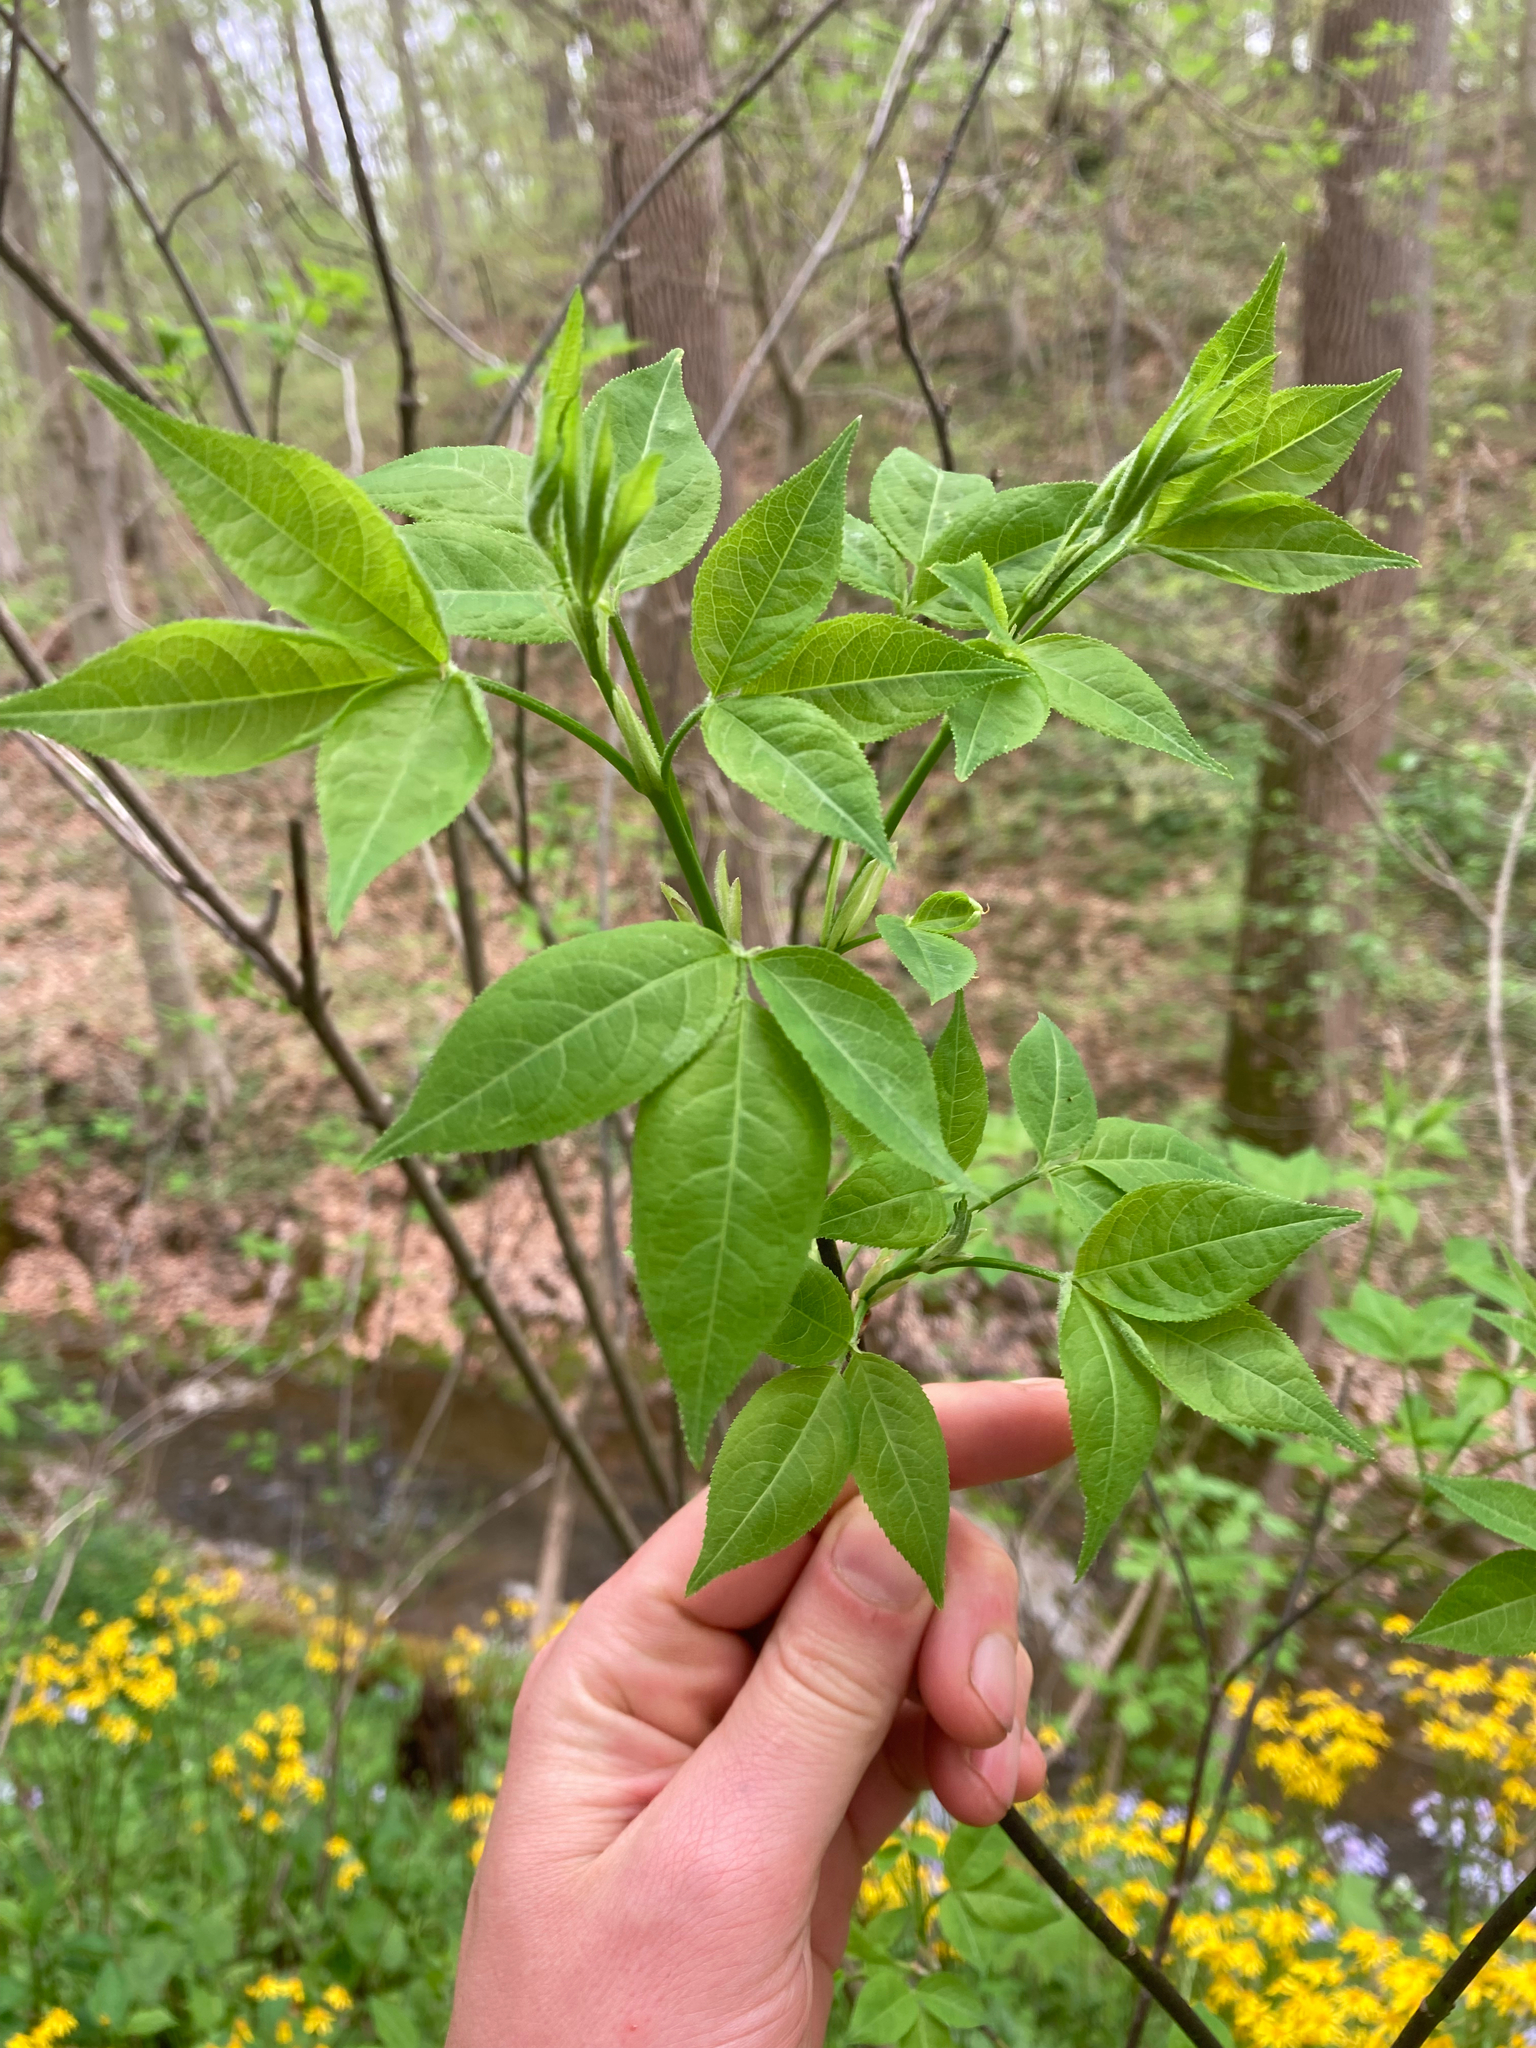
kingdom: Plantae
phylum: Tracheophyta
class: Magnoliopsida
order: Crossosomatales
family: Staphyleaceae
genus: Staphylea
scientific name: Staphylea trifolia
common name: American bladdernut
